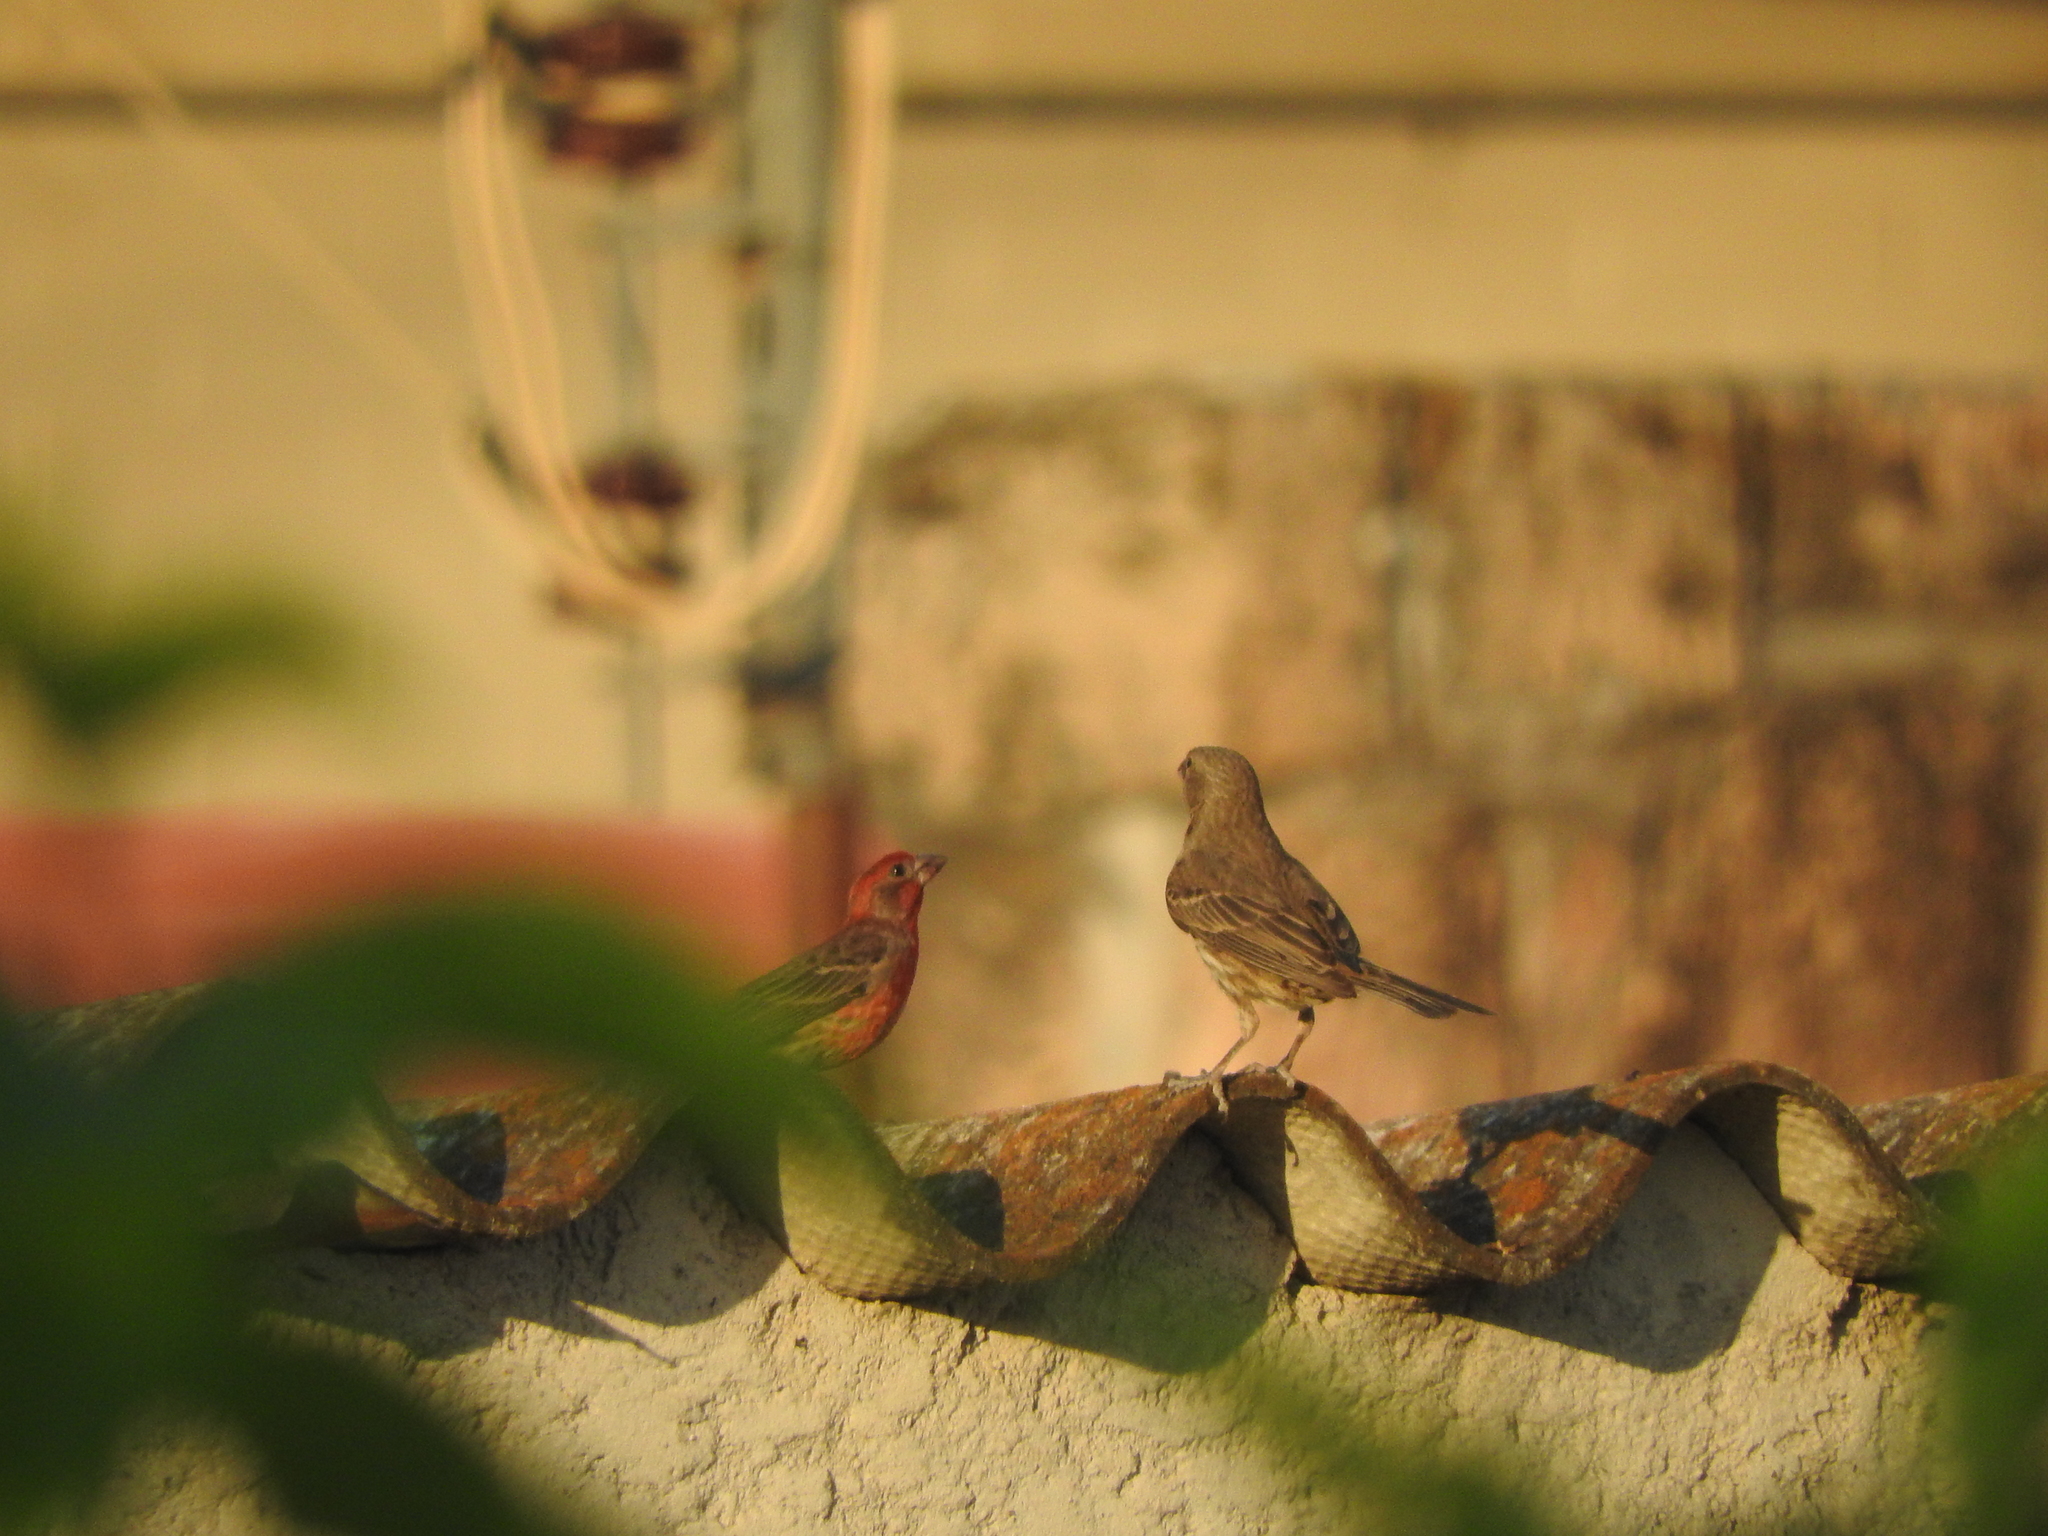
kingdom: Animalia
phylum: Chordata
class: Aves
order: Passeriformes
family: Fringillidae
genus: Haemorhous
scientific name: Haemorhous mexicanus
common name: House finch
